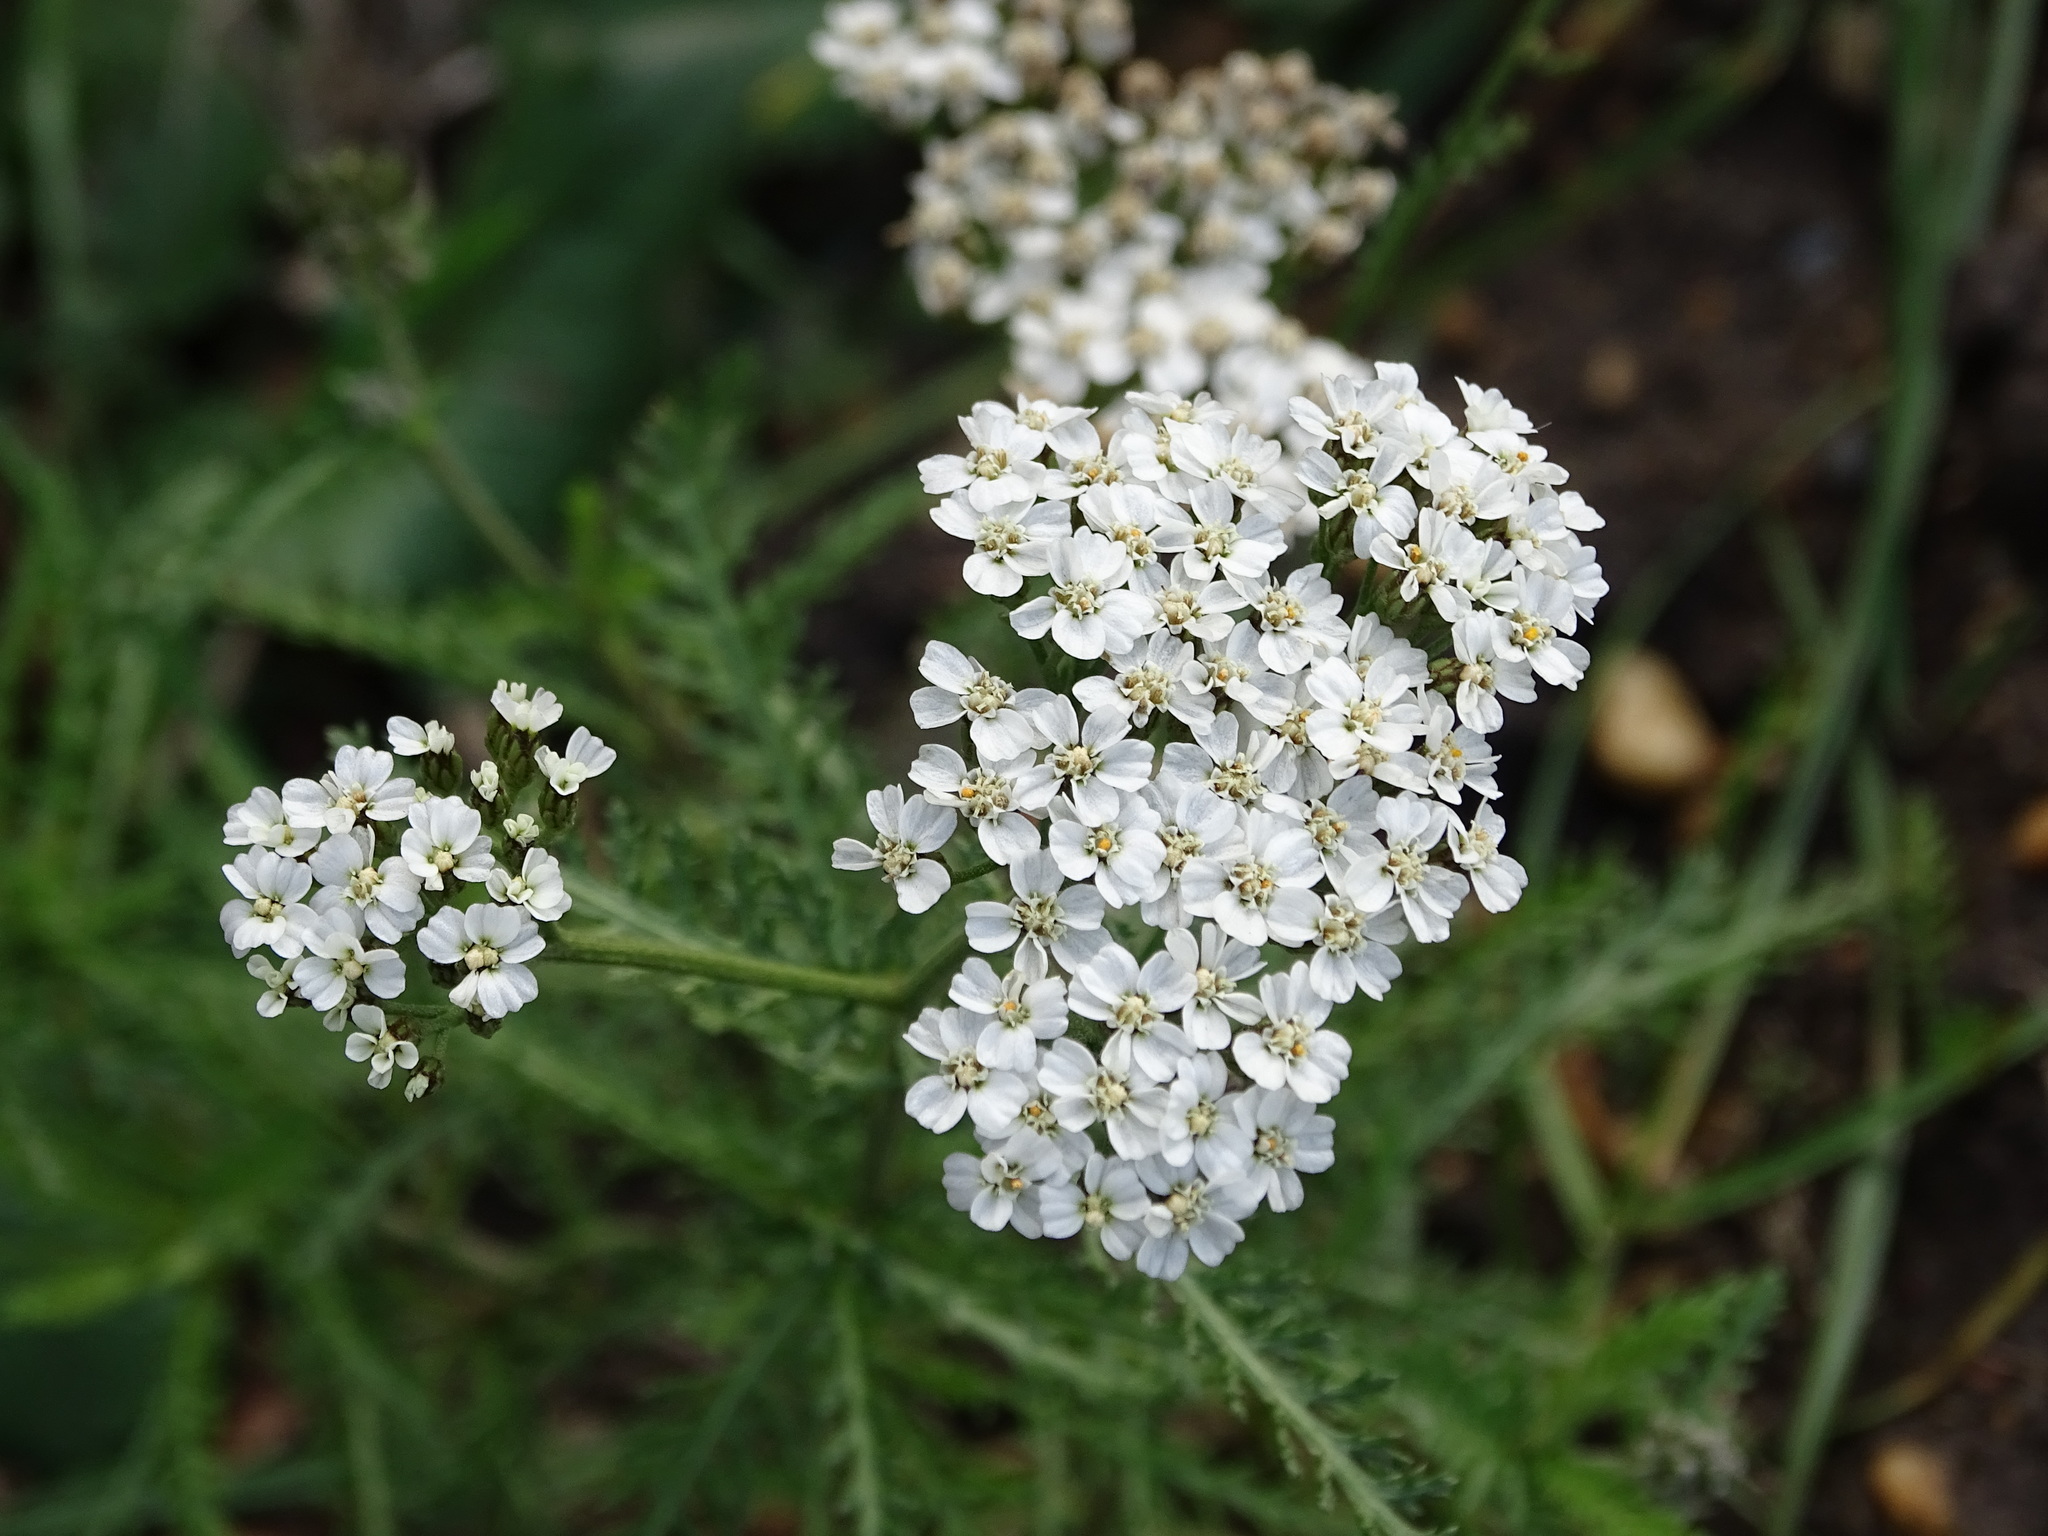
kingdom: Plantae
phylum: Tracheophyta
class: Magnoliopsida
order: Asterales
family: Asteraceae
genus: Achillea
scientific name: Achillea millefolium
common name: Yarrow
